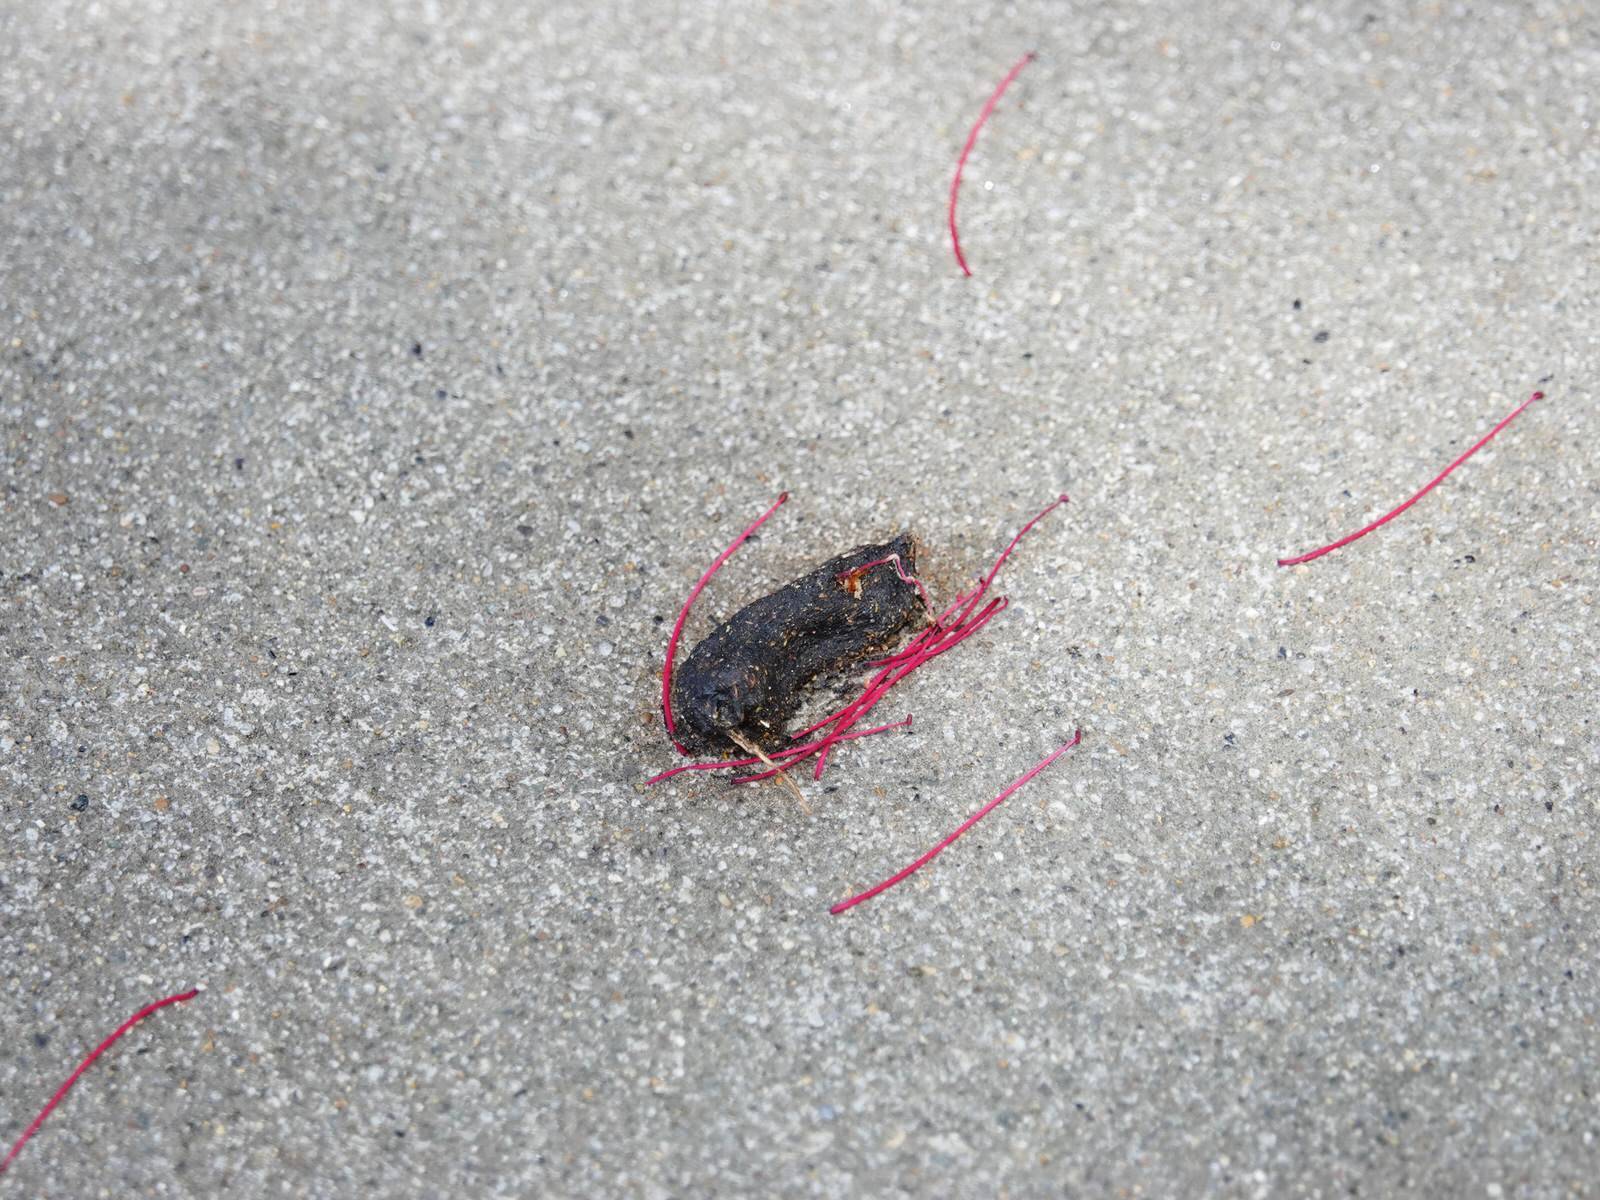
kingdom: Animalia
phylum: Chordata
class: Mammalia
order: Diprotodontia
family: Phalangeridae
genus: Trichosurus
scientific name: Trichosurus vulpecula
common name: Common brushtail
